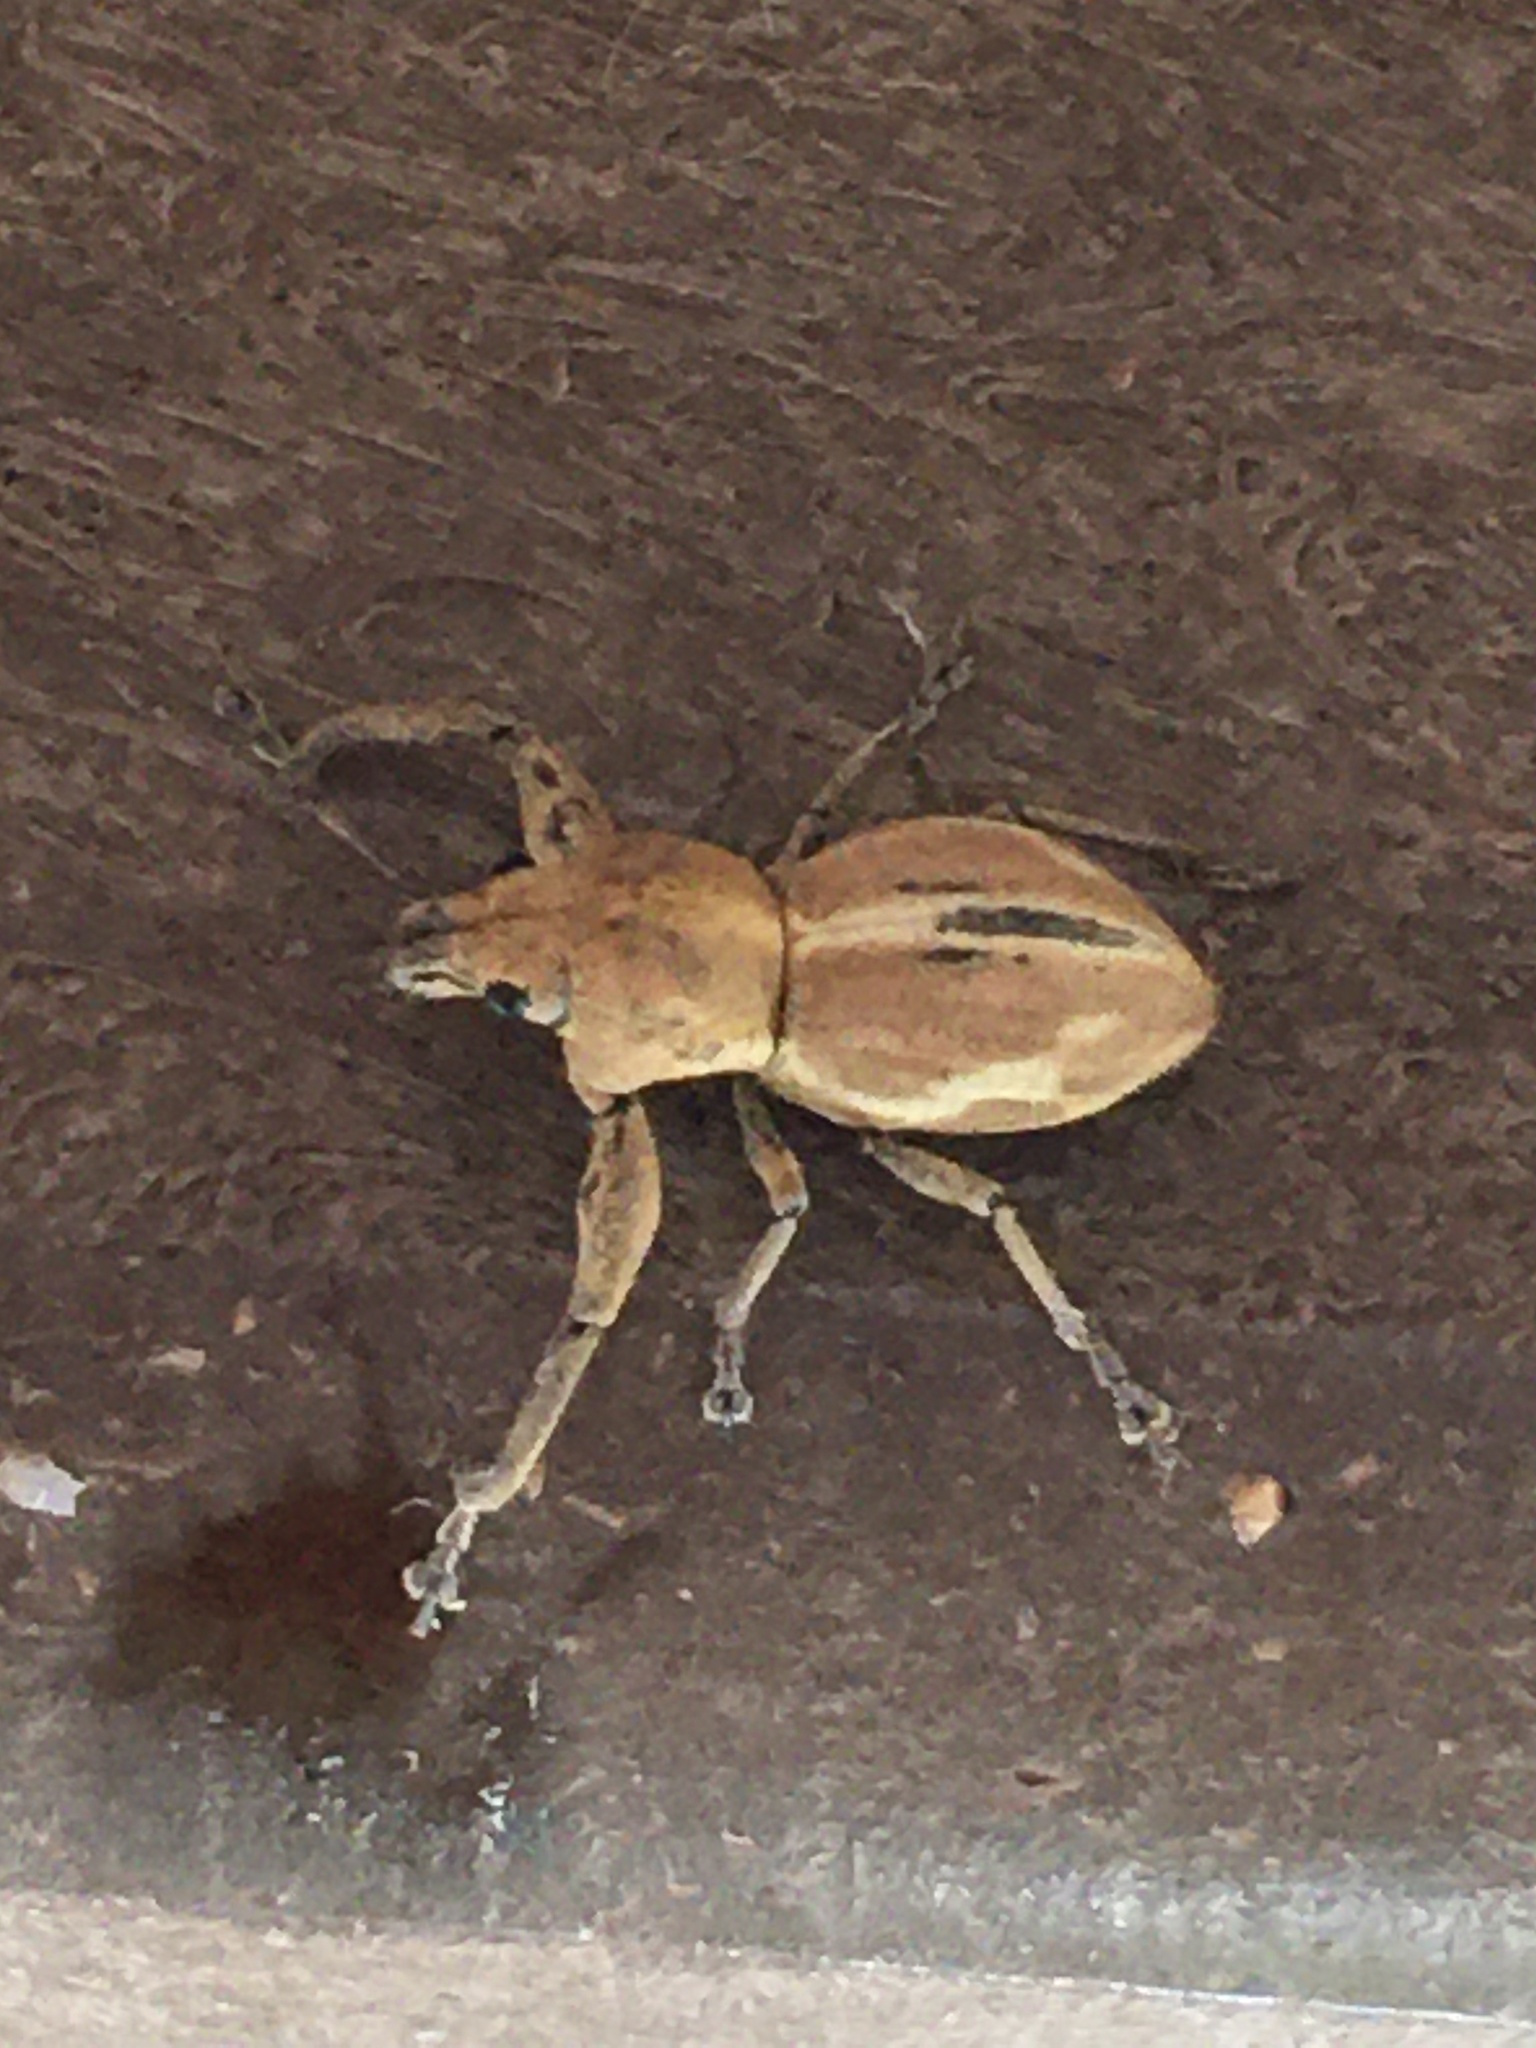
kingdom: Animalia
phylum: Arthropoda
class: Insecta
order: Coleoptera
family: Curculionidae
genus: Alceis
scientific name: Alceis curtus
